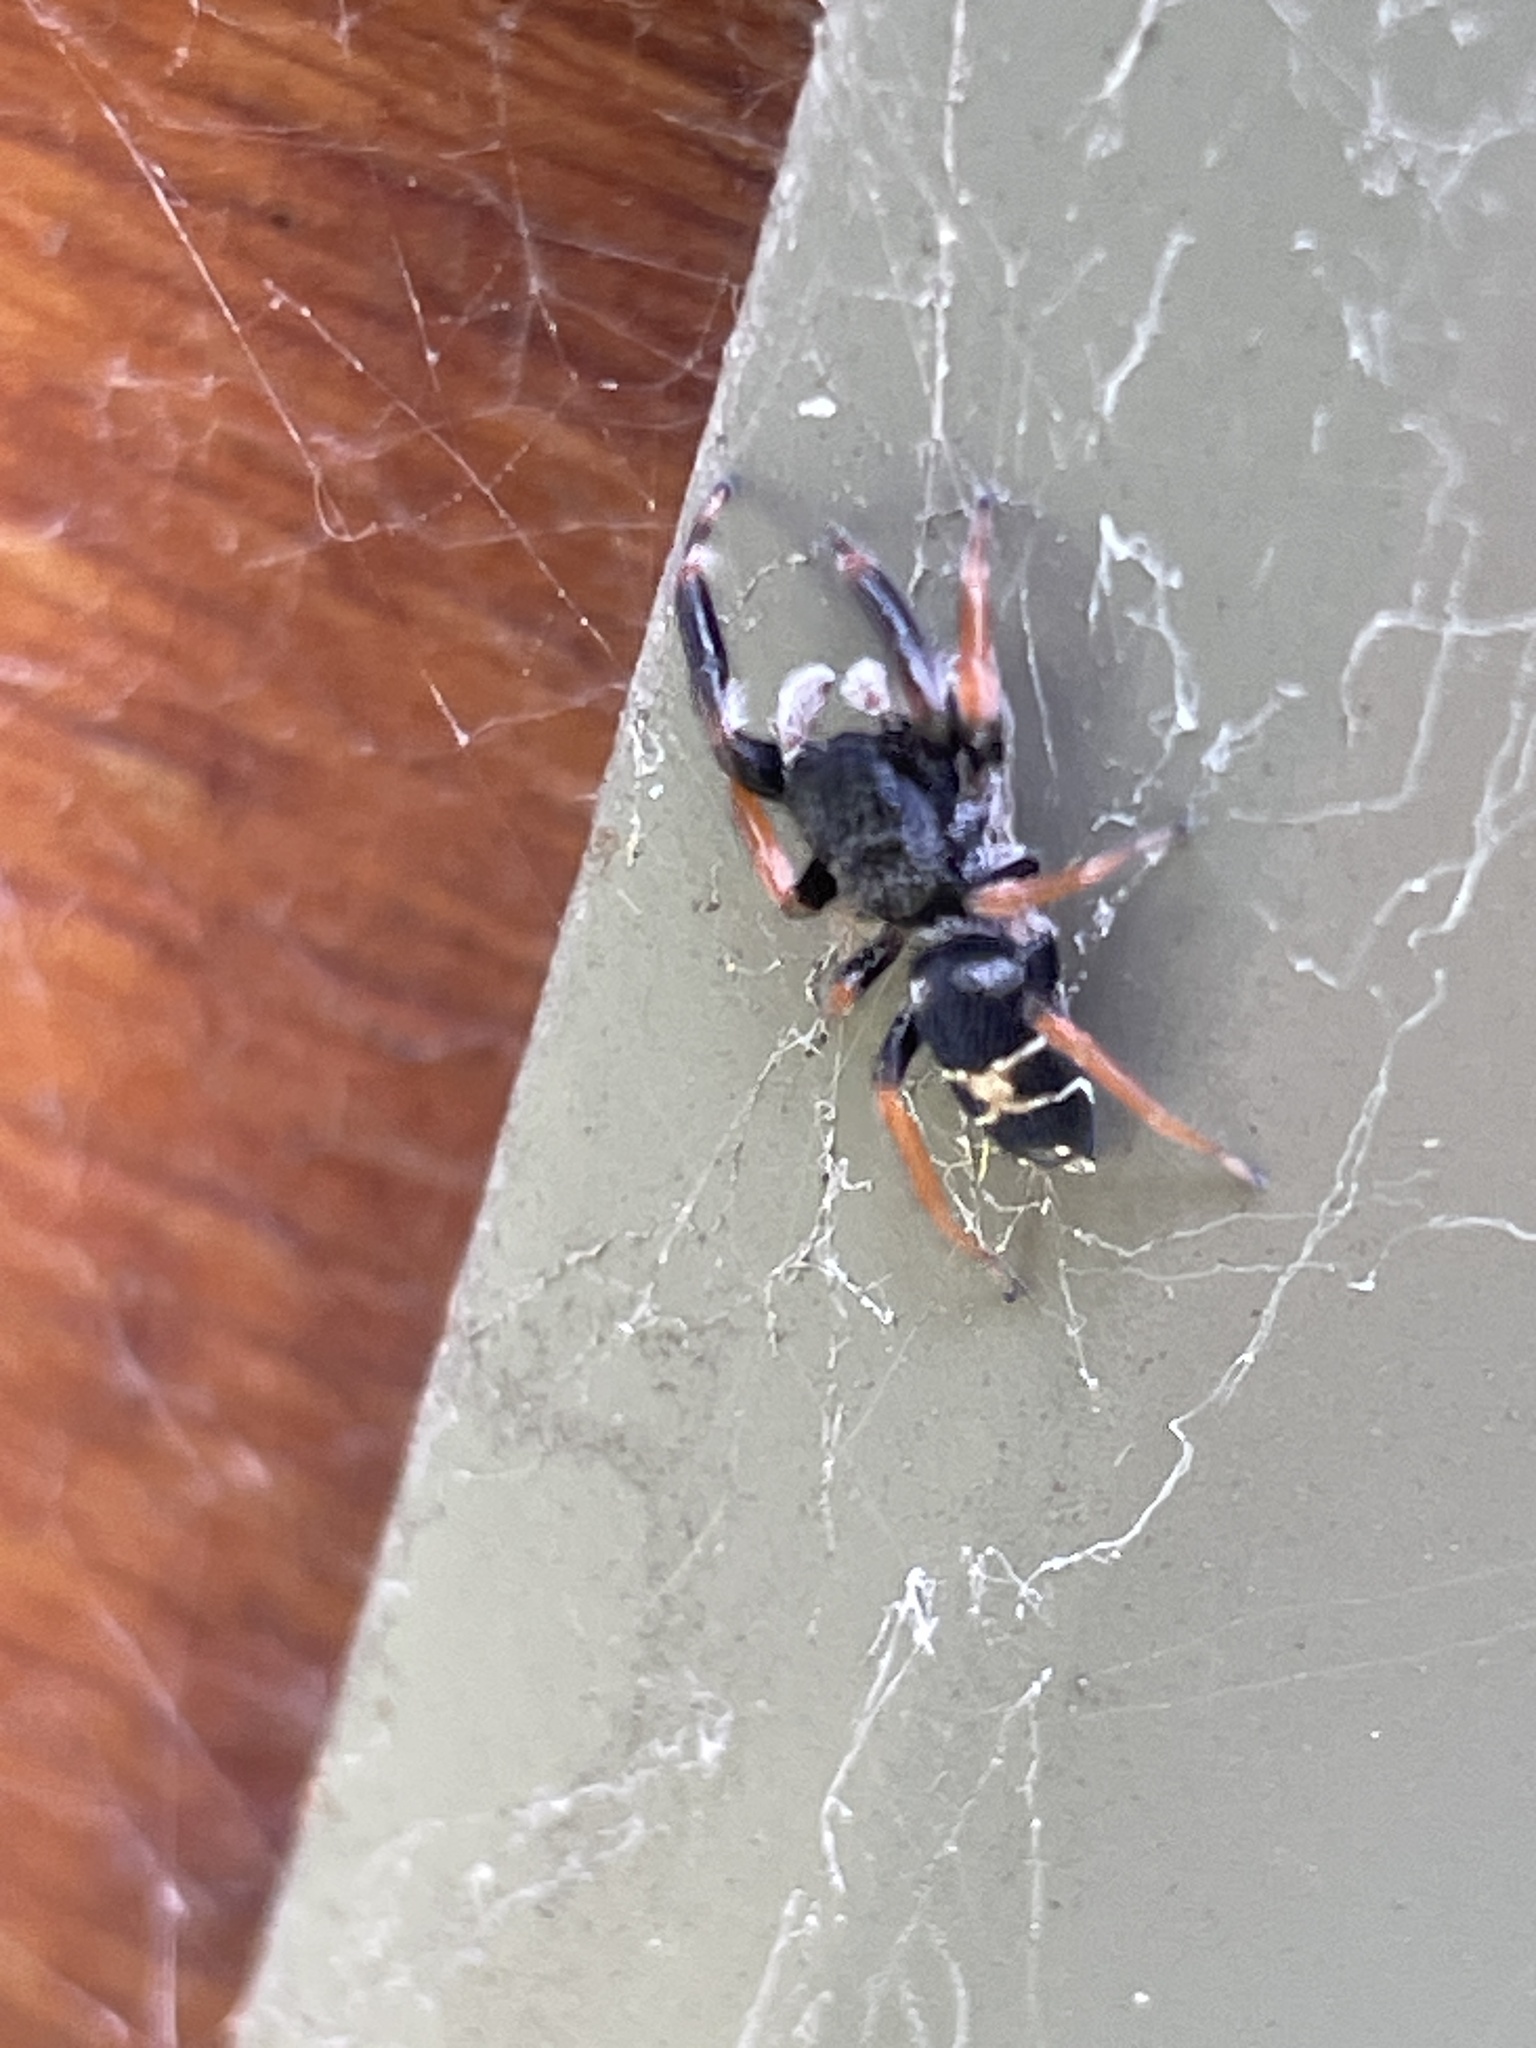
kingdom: Animalia
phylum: Arthropoda
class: Arachnida
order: Araneae
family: Salticidae
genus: Apricia
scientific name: Apricia jovialis
